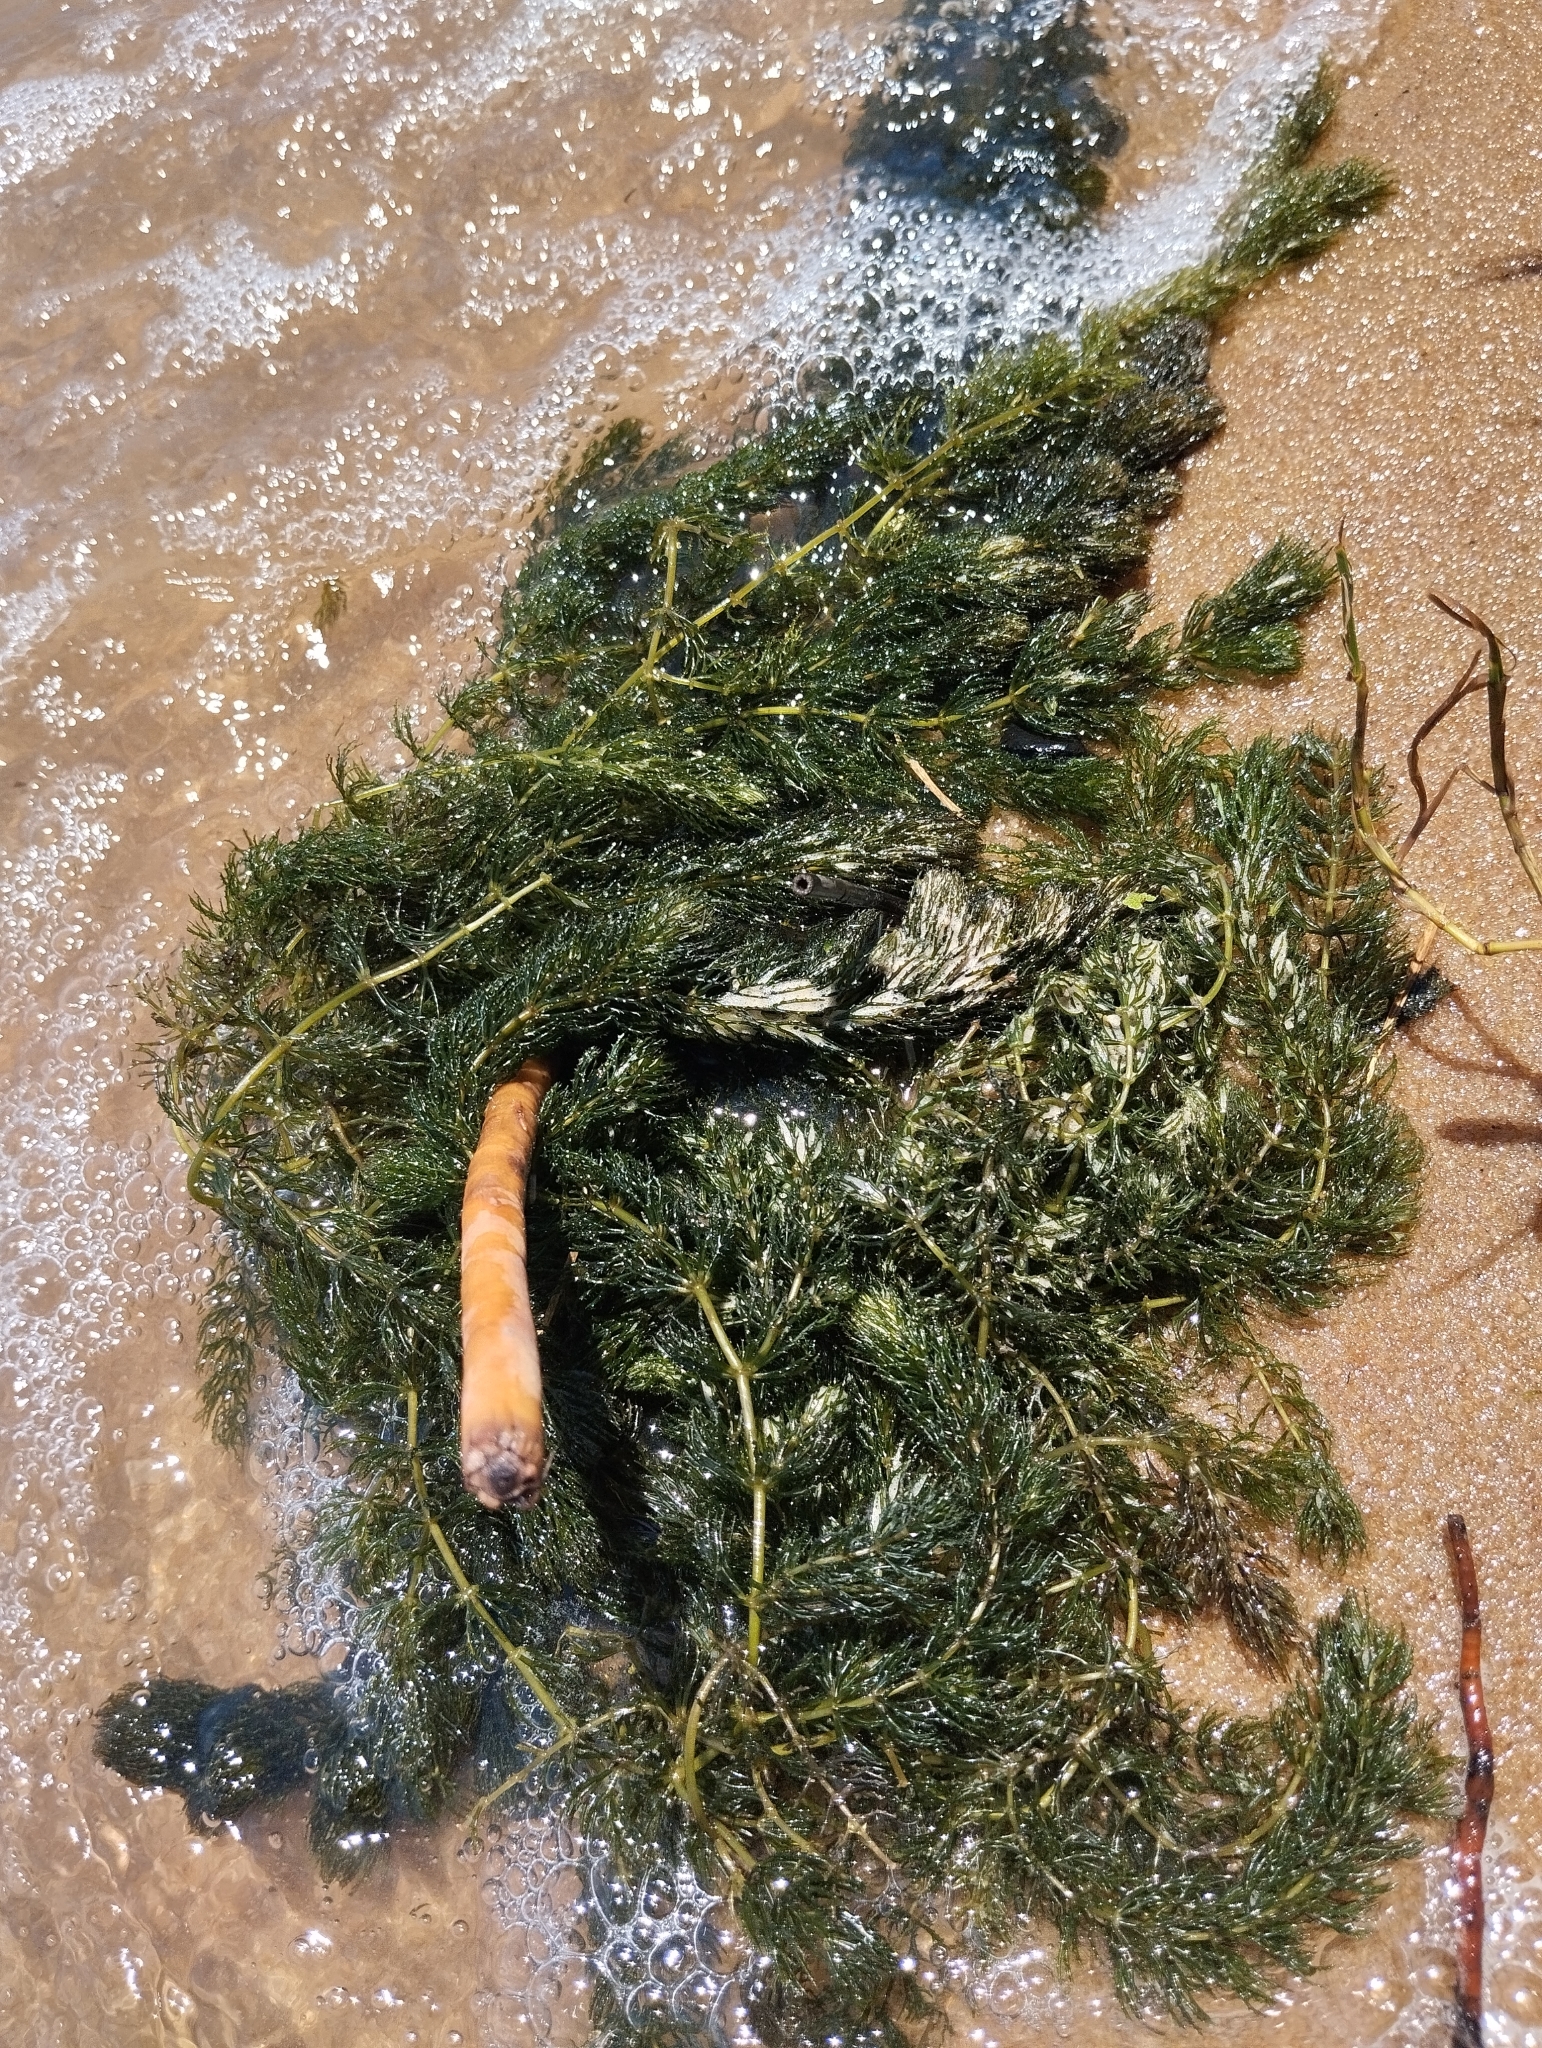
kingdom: Plantae
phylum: Tracheophyta
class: Magnoliopsida
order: Ceratophyllales
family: Ceratophyllaceae
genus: Ceratophyllum
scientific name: Ceratophyllum demersum
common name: Rigid hornwort
